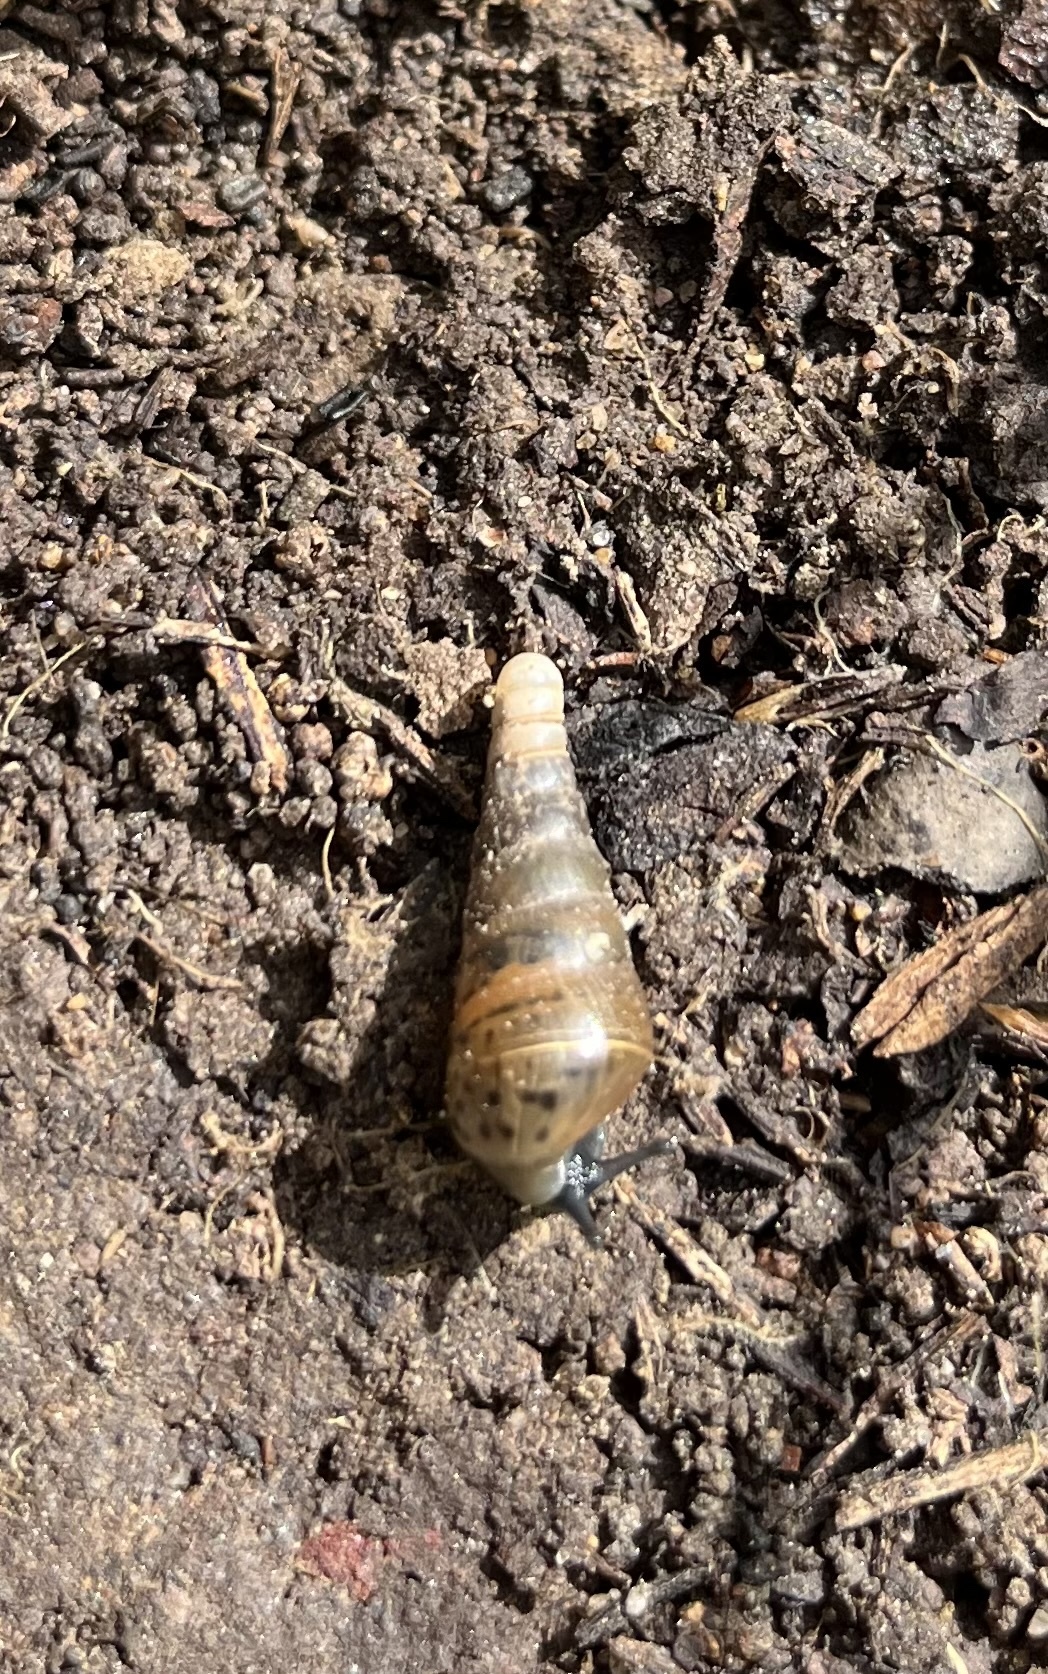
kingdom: Animalia
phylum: Mollusca
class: Gastropoda
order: Stylommatophora
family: Achatinidae
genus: Rumina
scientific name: Rumina decollata
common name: Decollate snail
